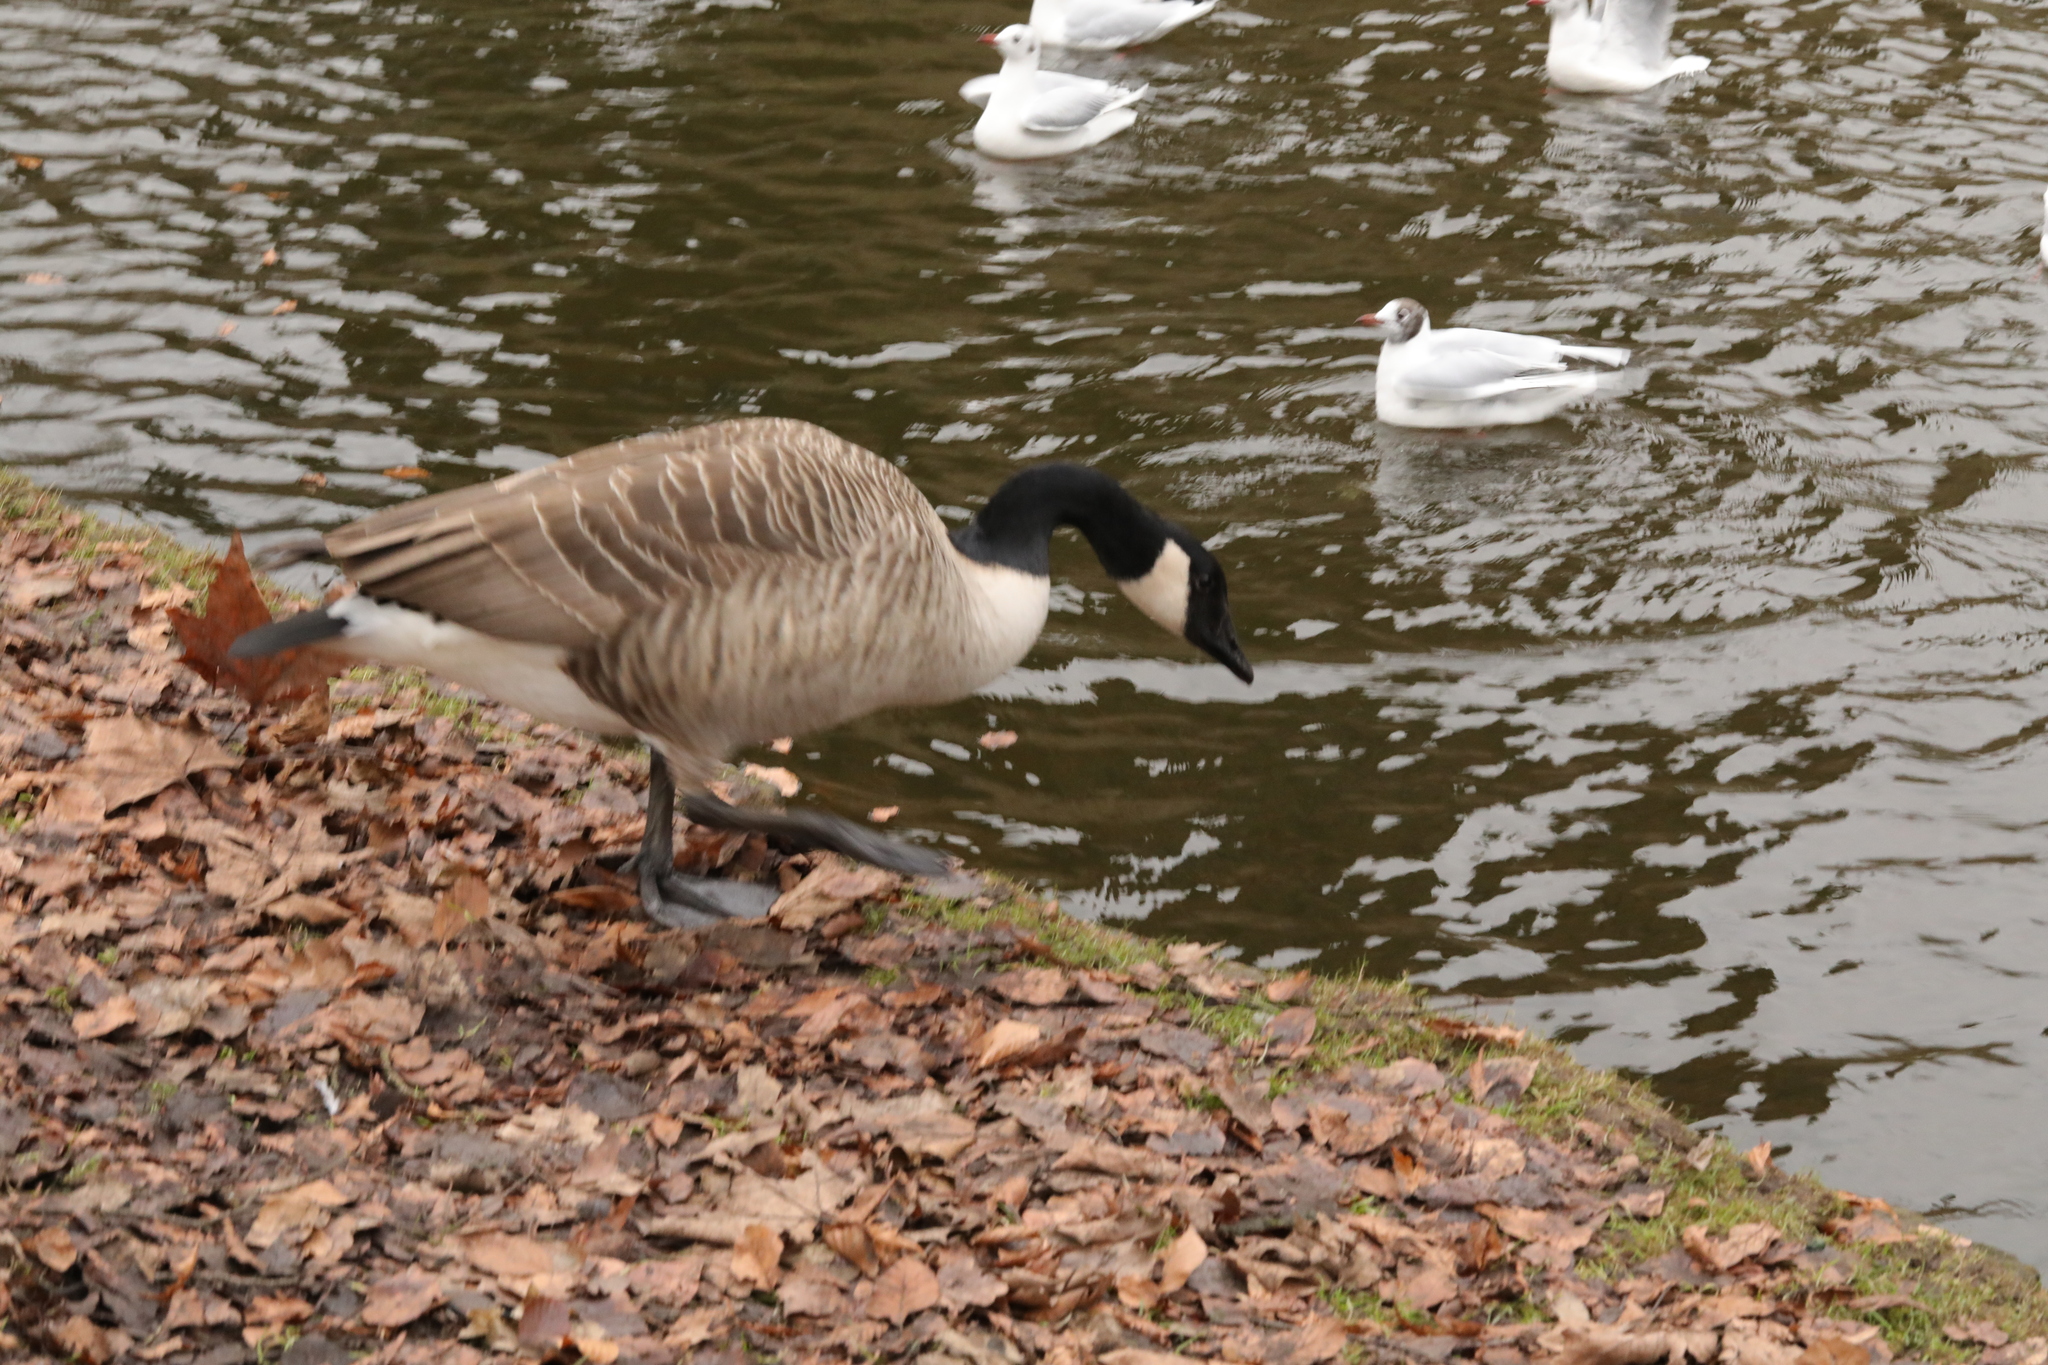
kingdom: Animalia
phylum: Chordata
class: Aves
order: Anseriformes
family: Anatidae
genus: Branta
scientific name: Branta canadensis
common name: Canada goose
